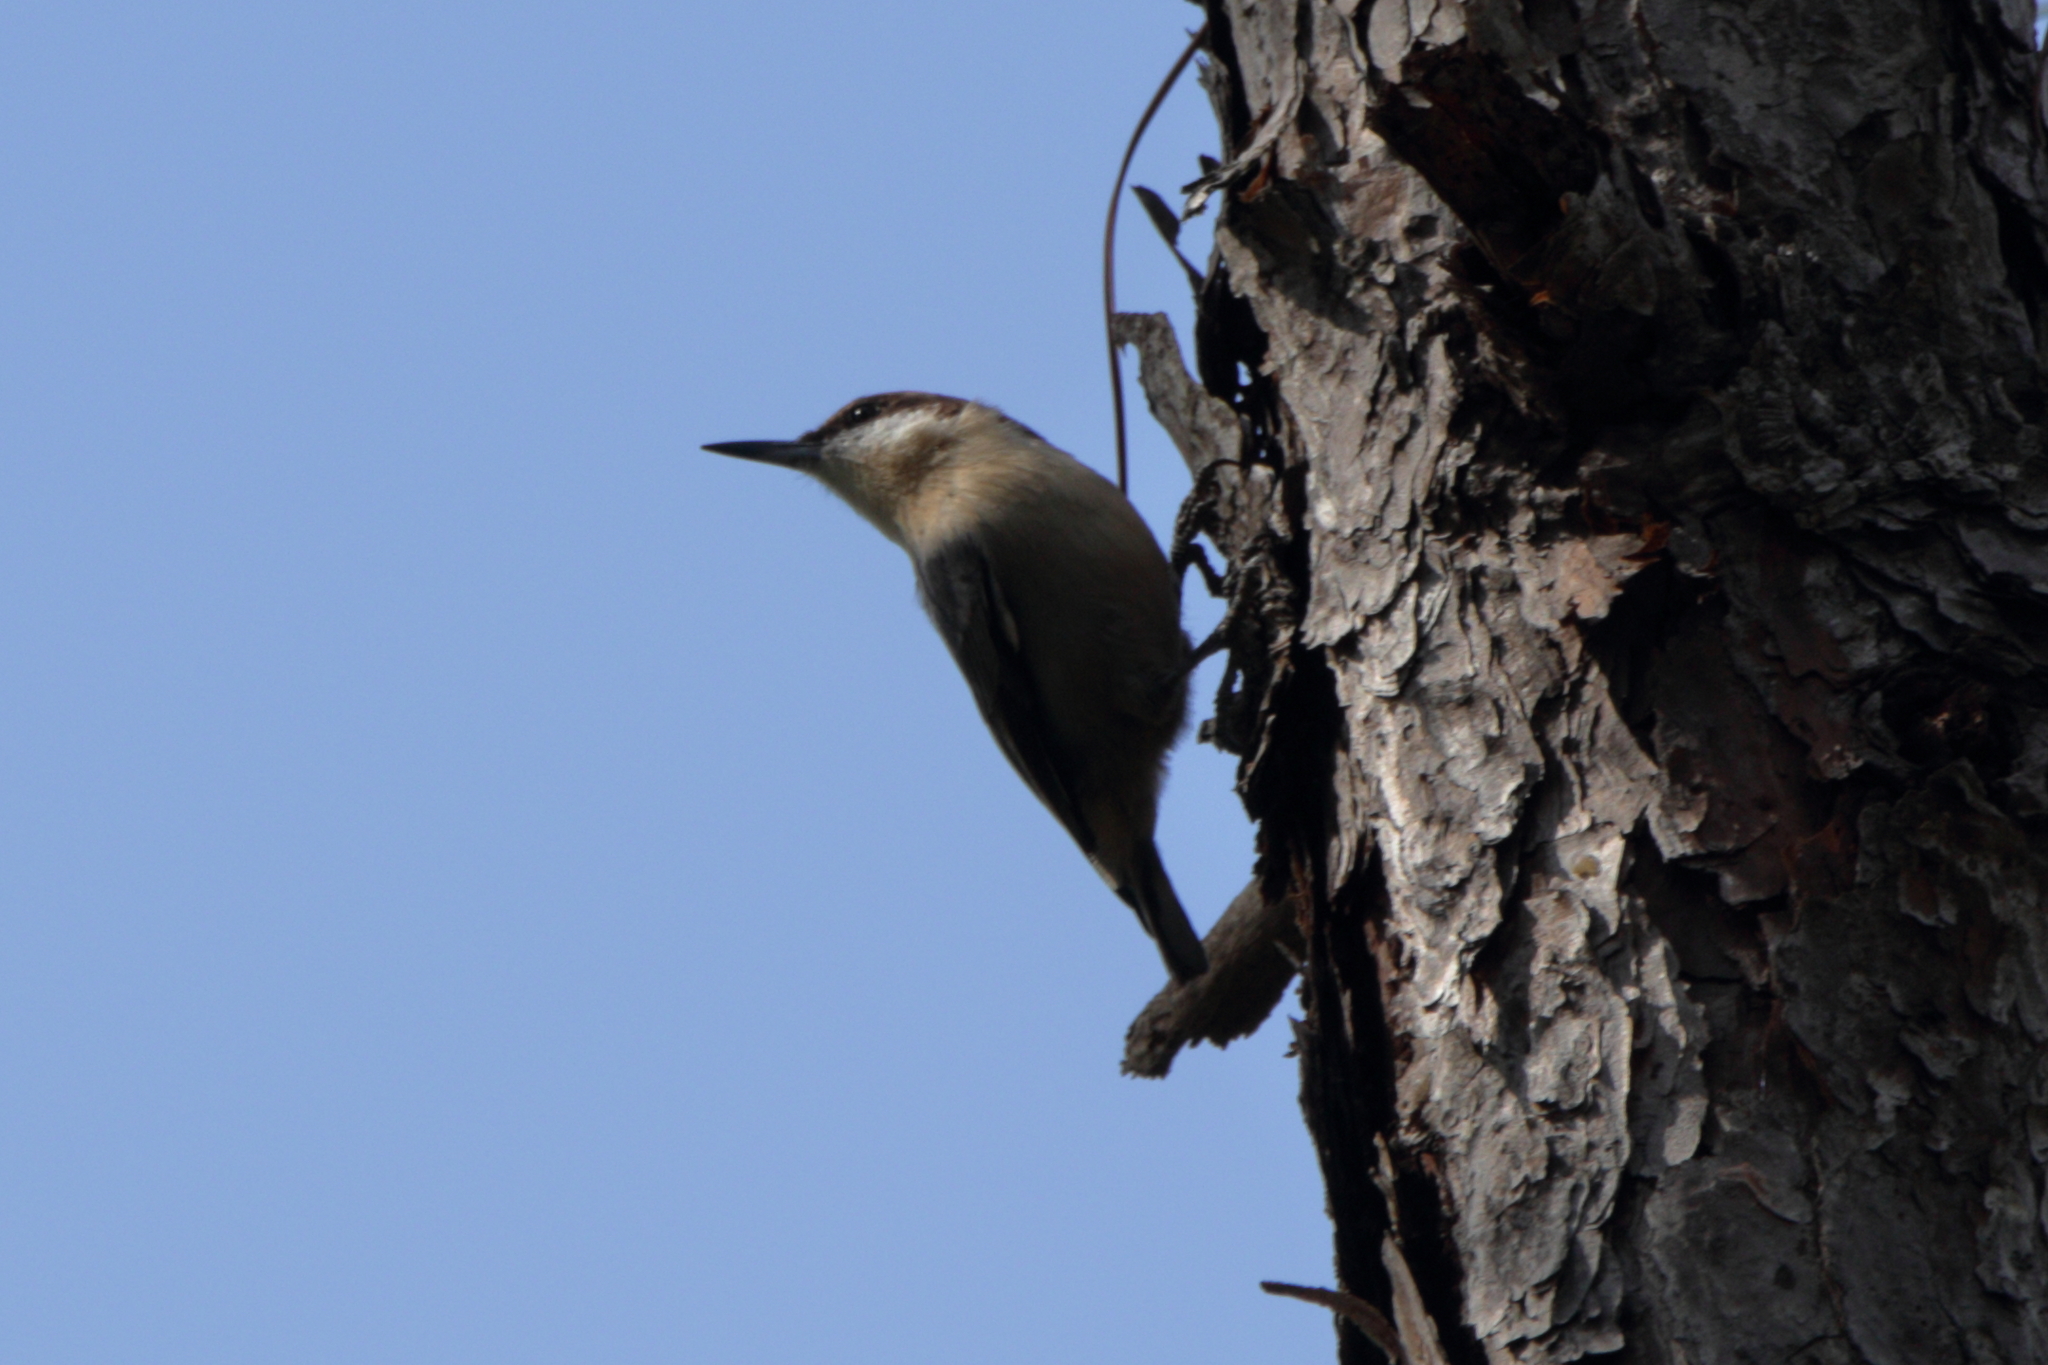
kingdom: Animalia
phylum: Chordata
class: Aves
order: Passeriformes
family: Sittidae
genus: Sitta
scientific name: Sitta pusilla
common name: Brown-headed nuthatch
